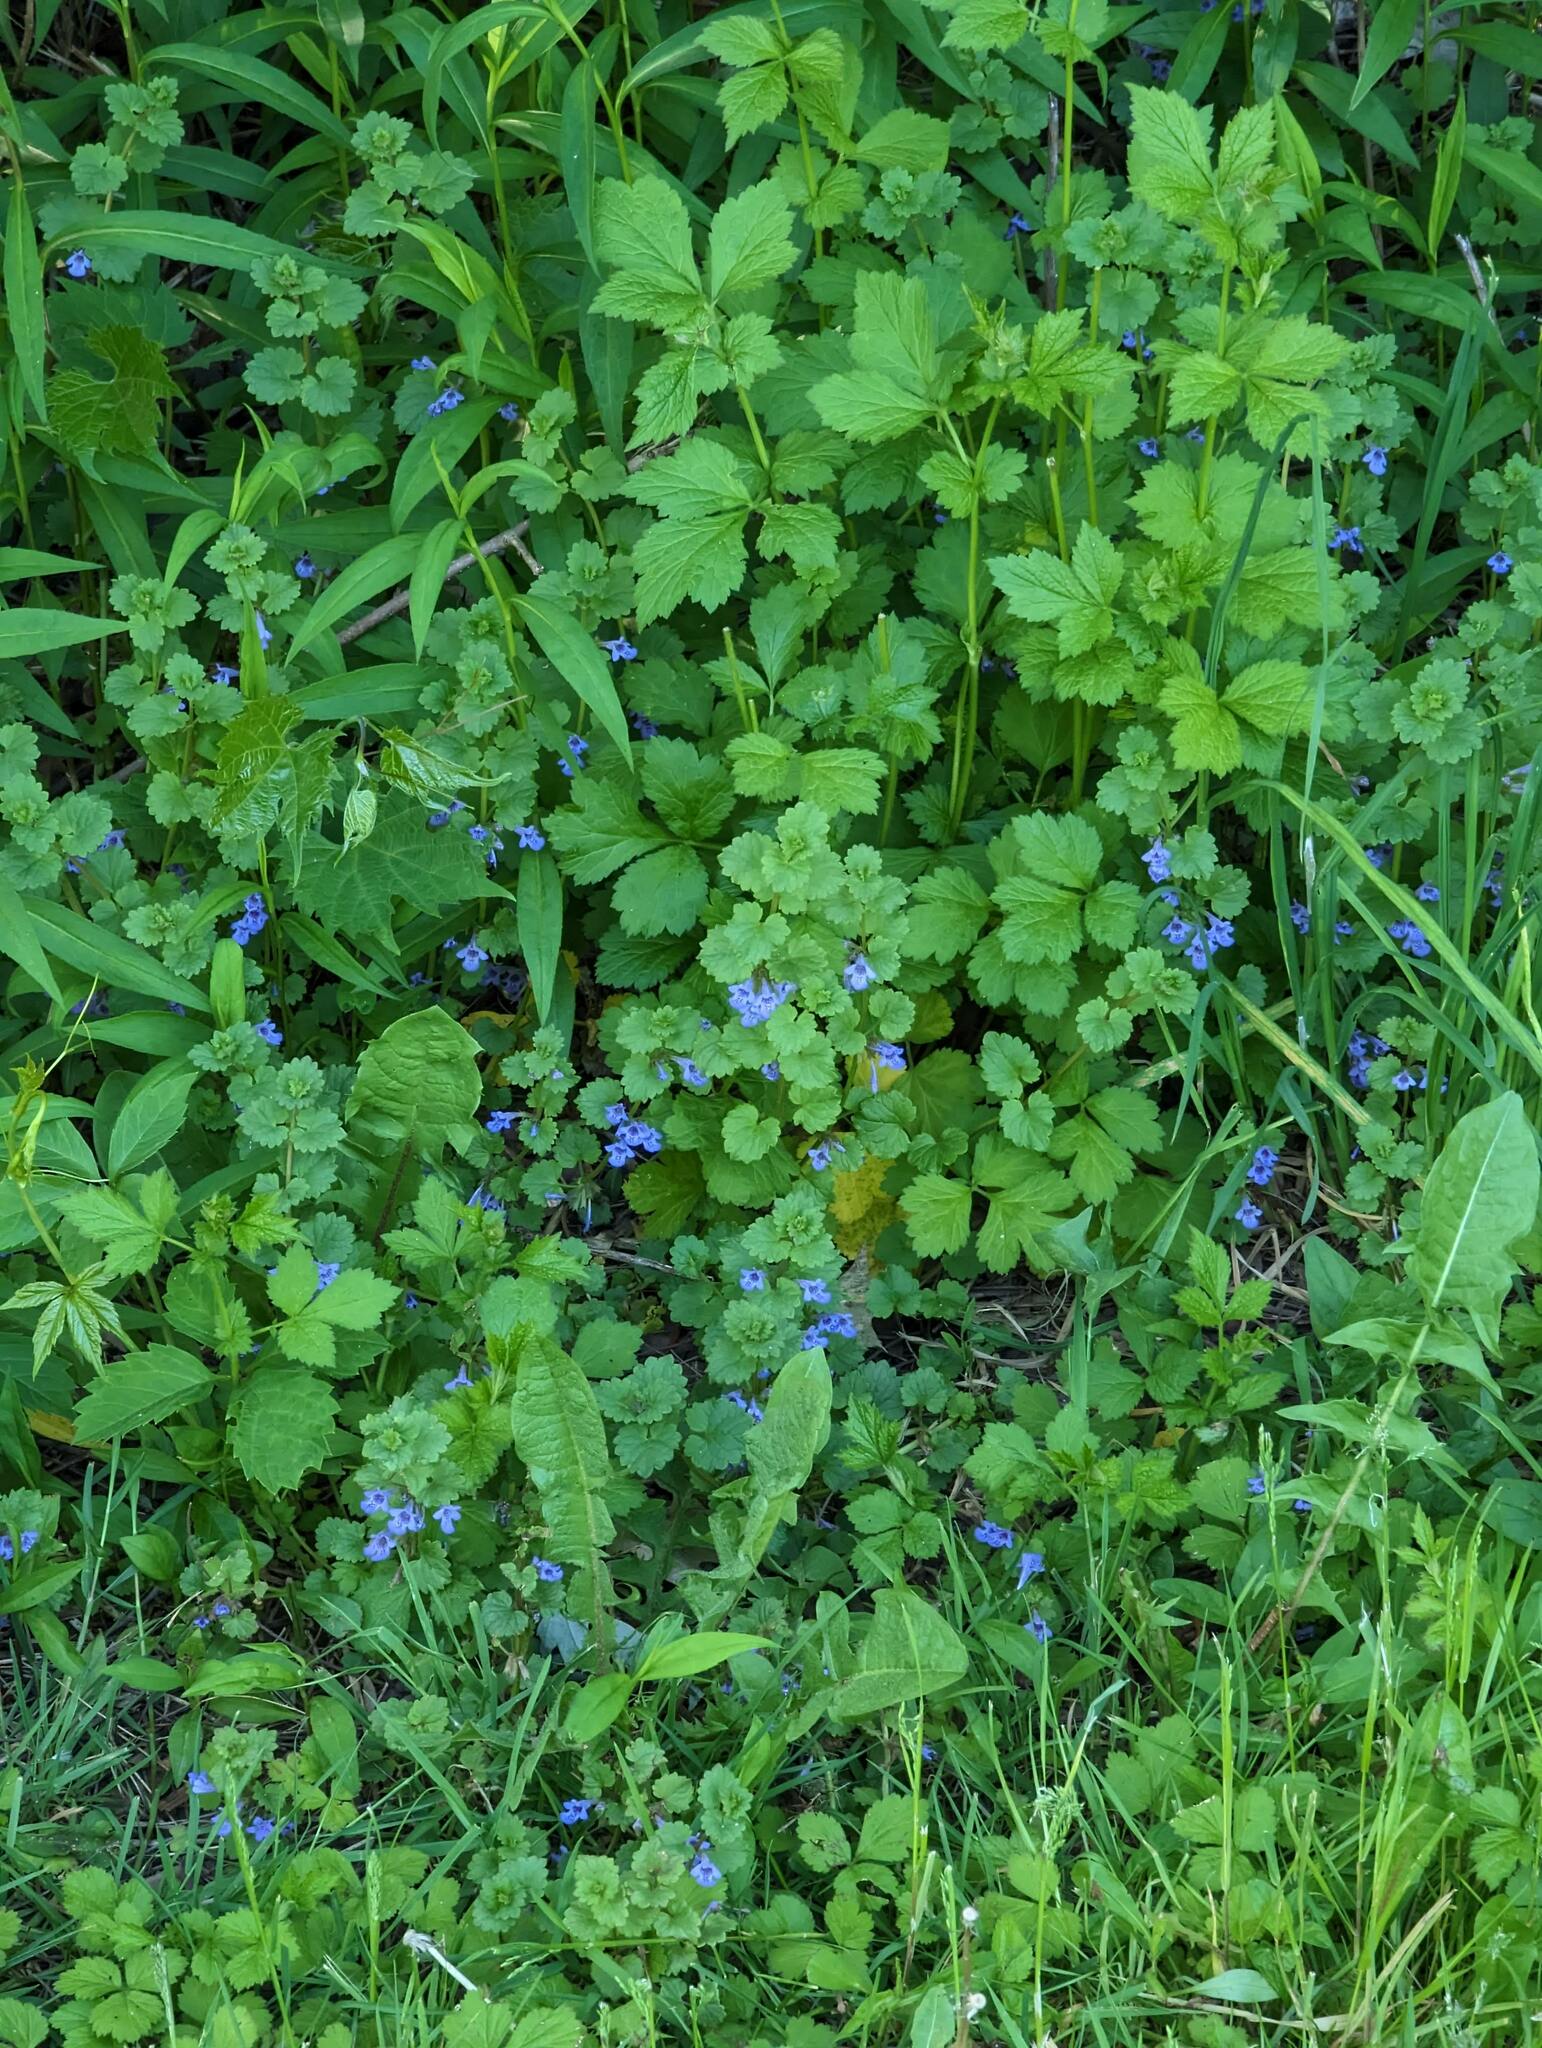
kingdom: Plantae
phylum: Tracheophyta
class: Magnoliopsida
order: Lamiales
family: Lamiaceae
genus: Glechoma
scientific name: Glechoma hederacea
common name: Ground ivy
